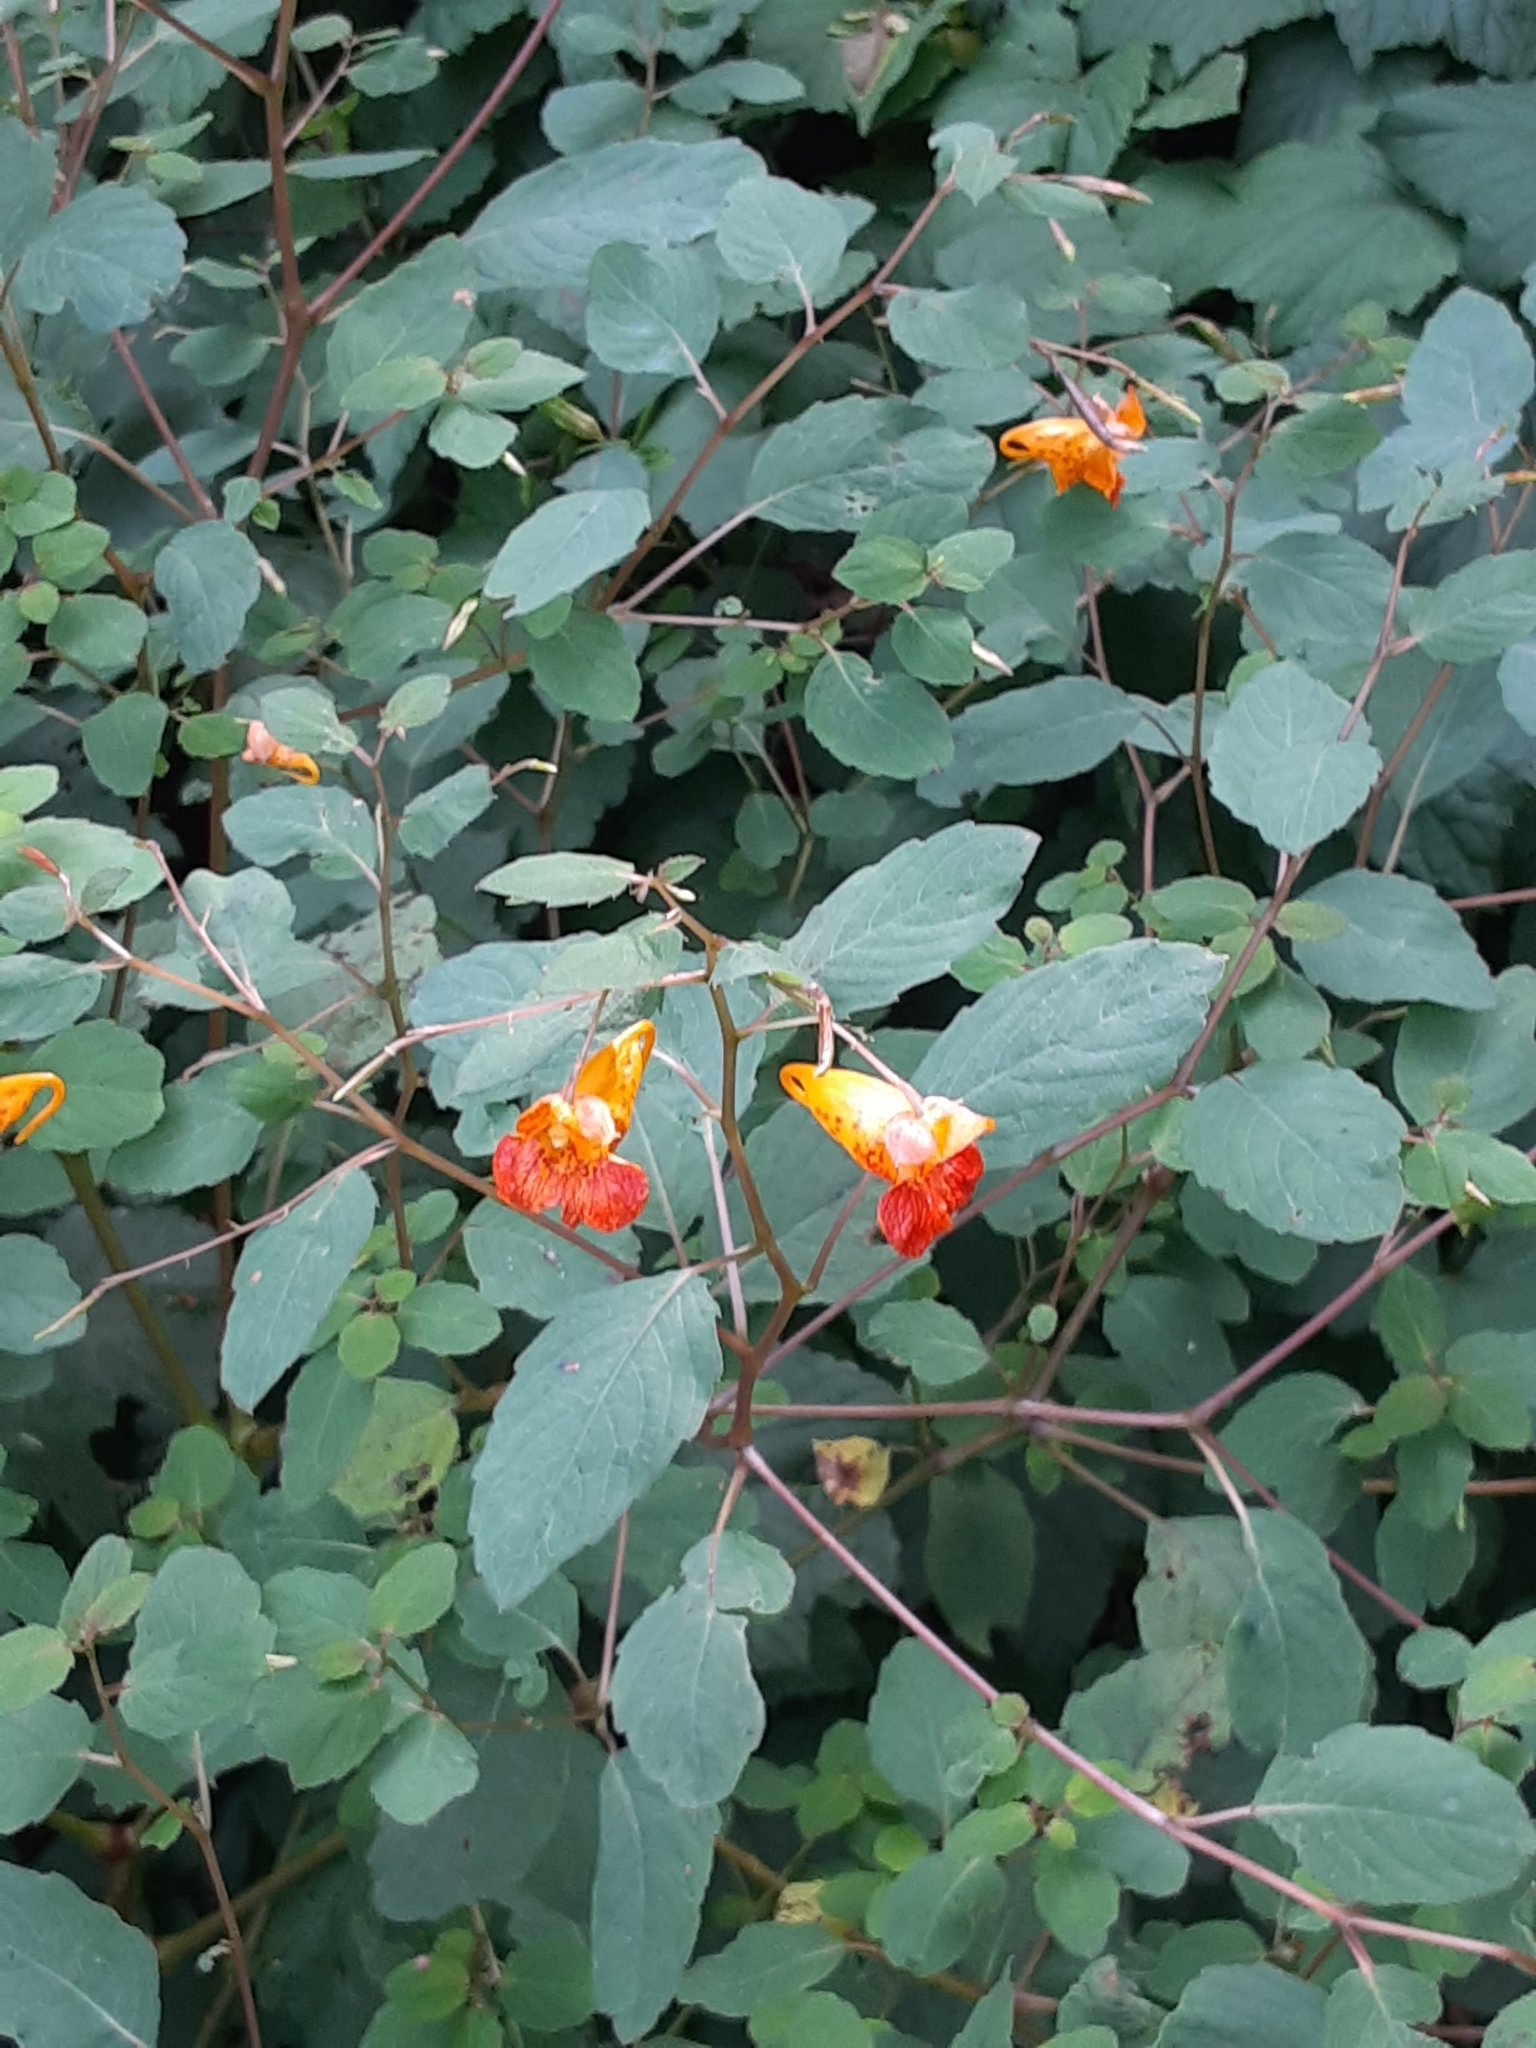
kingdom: Plantae
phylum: Tracheophyta
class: Magnoliopsida
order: Ericales
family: Balsaminaceae
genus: Impatiens
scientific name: Impatiens capensis
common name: Orange balsam
